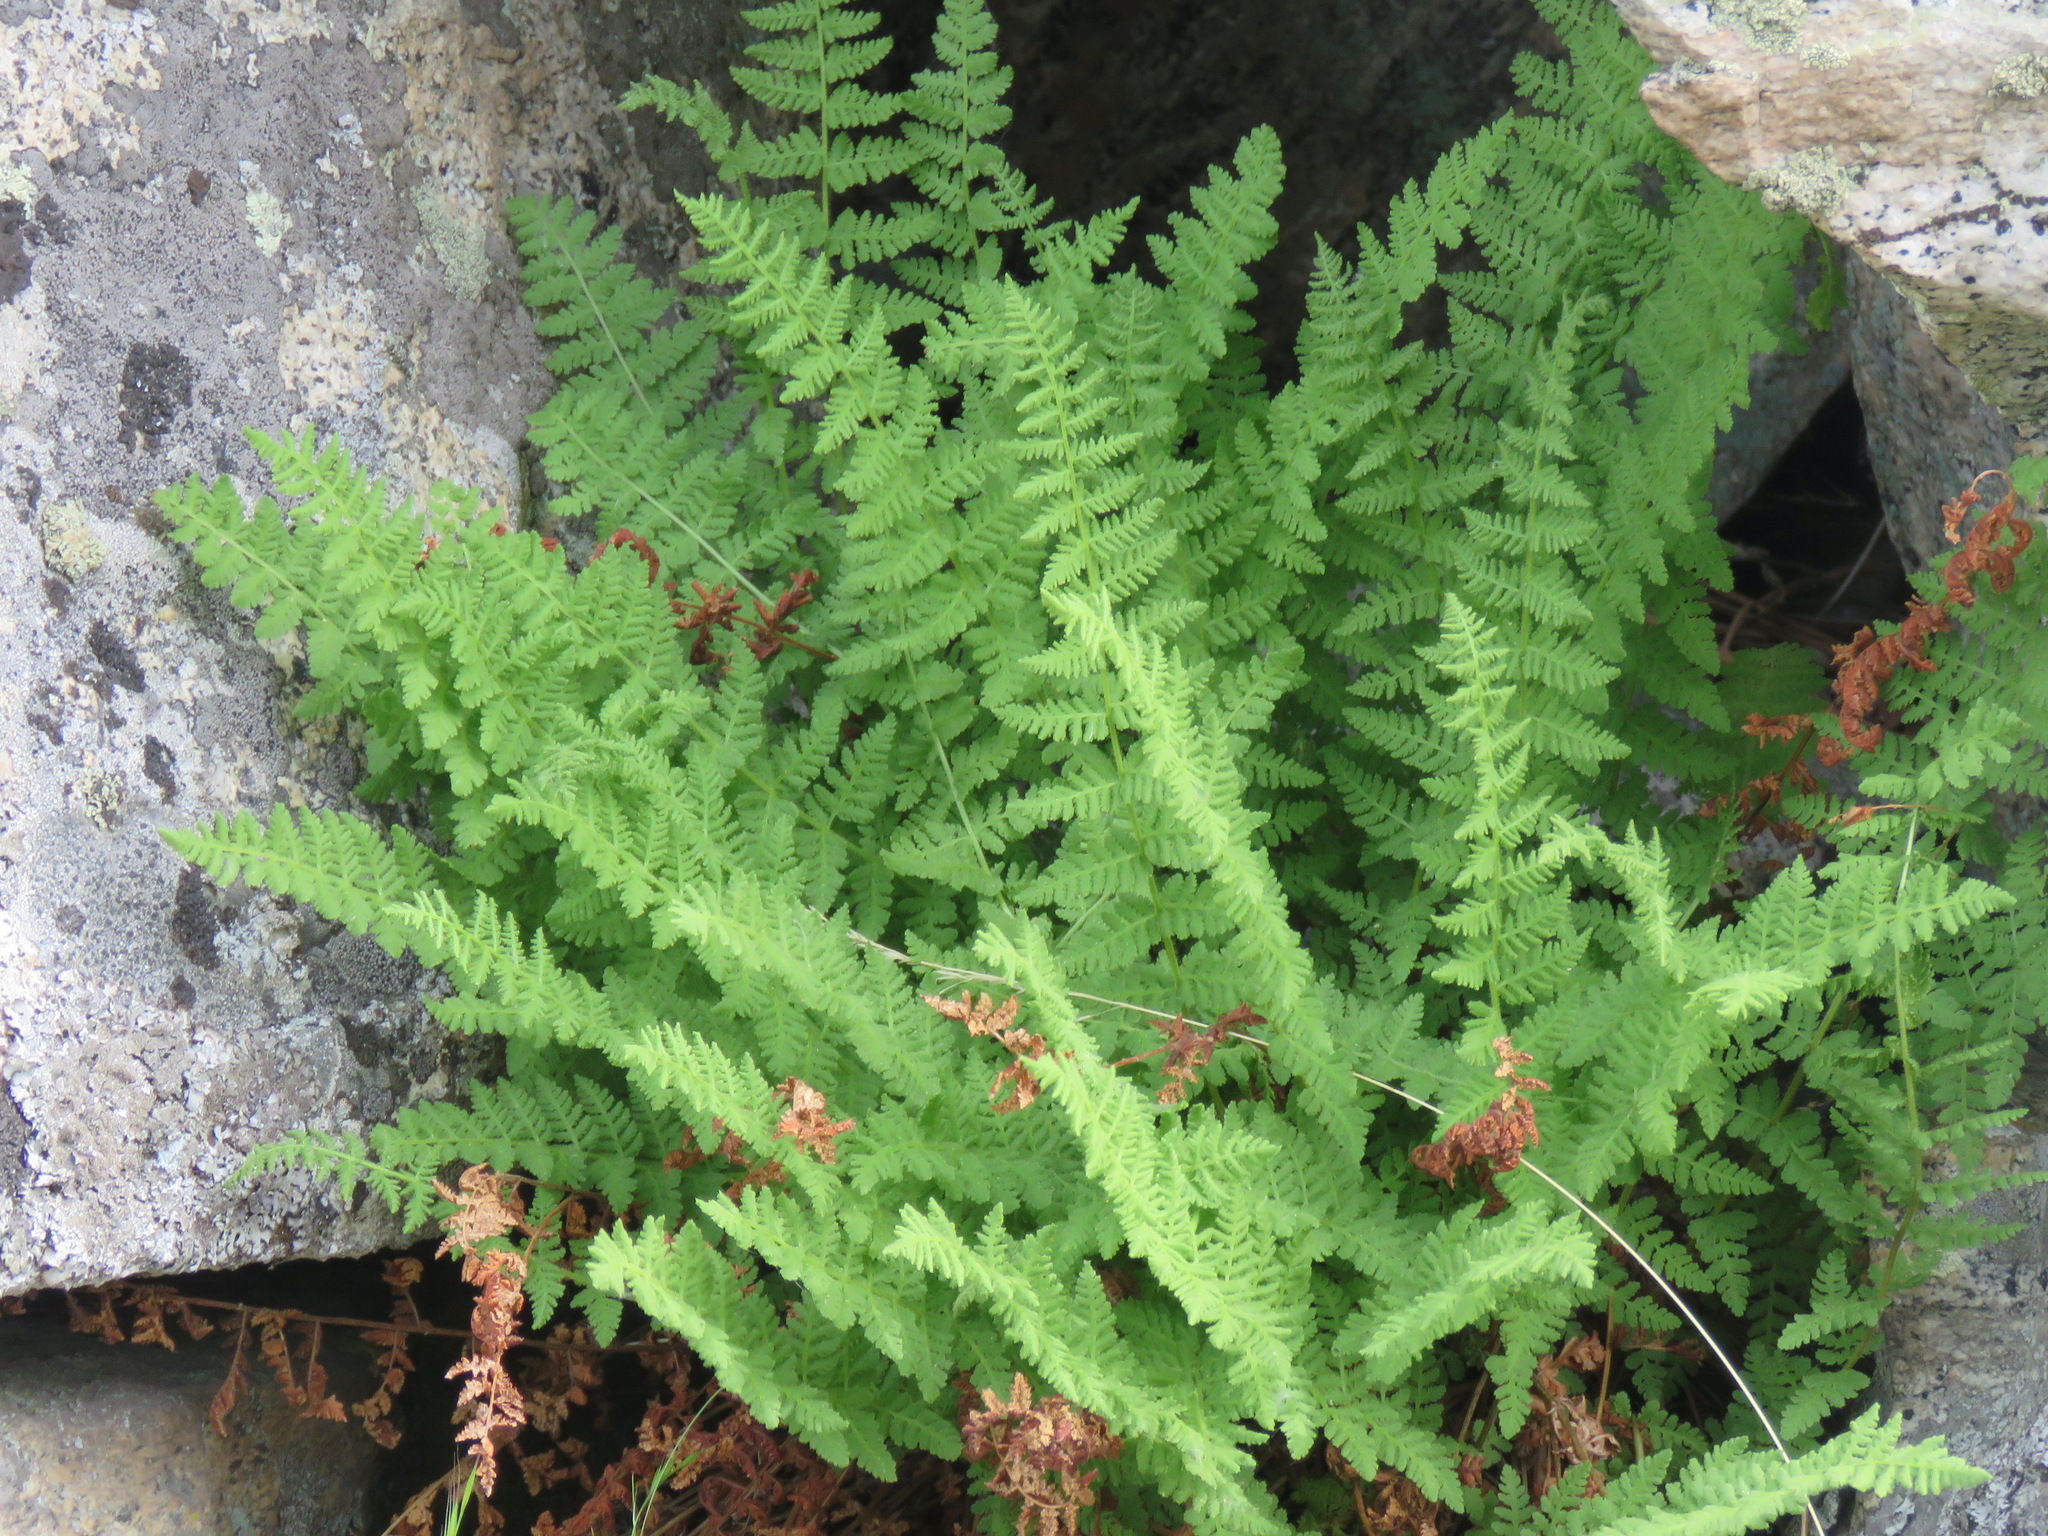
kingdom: Plantae
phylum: Tracheophyta
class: Polypodiopsida
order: Polypodiales
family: Woodsiaceae
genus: Physematium
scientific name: Physematium scopulinum
